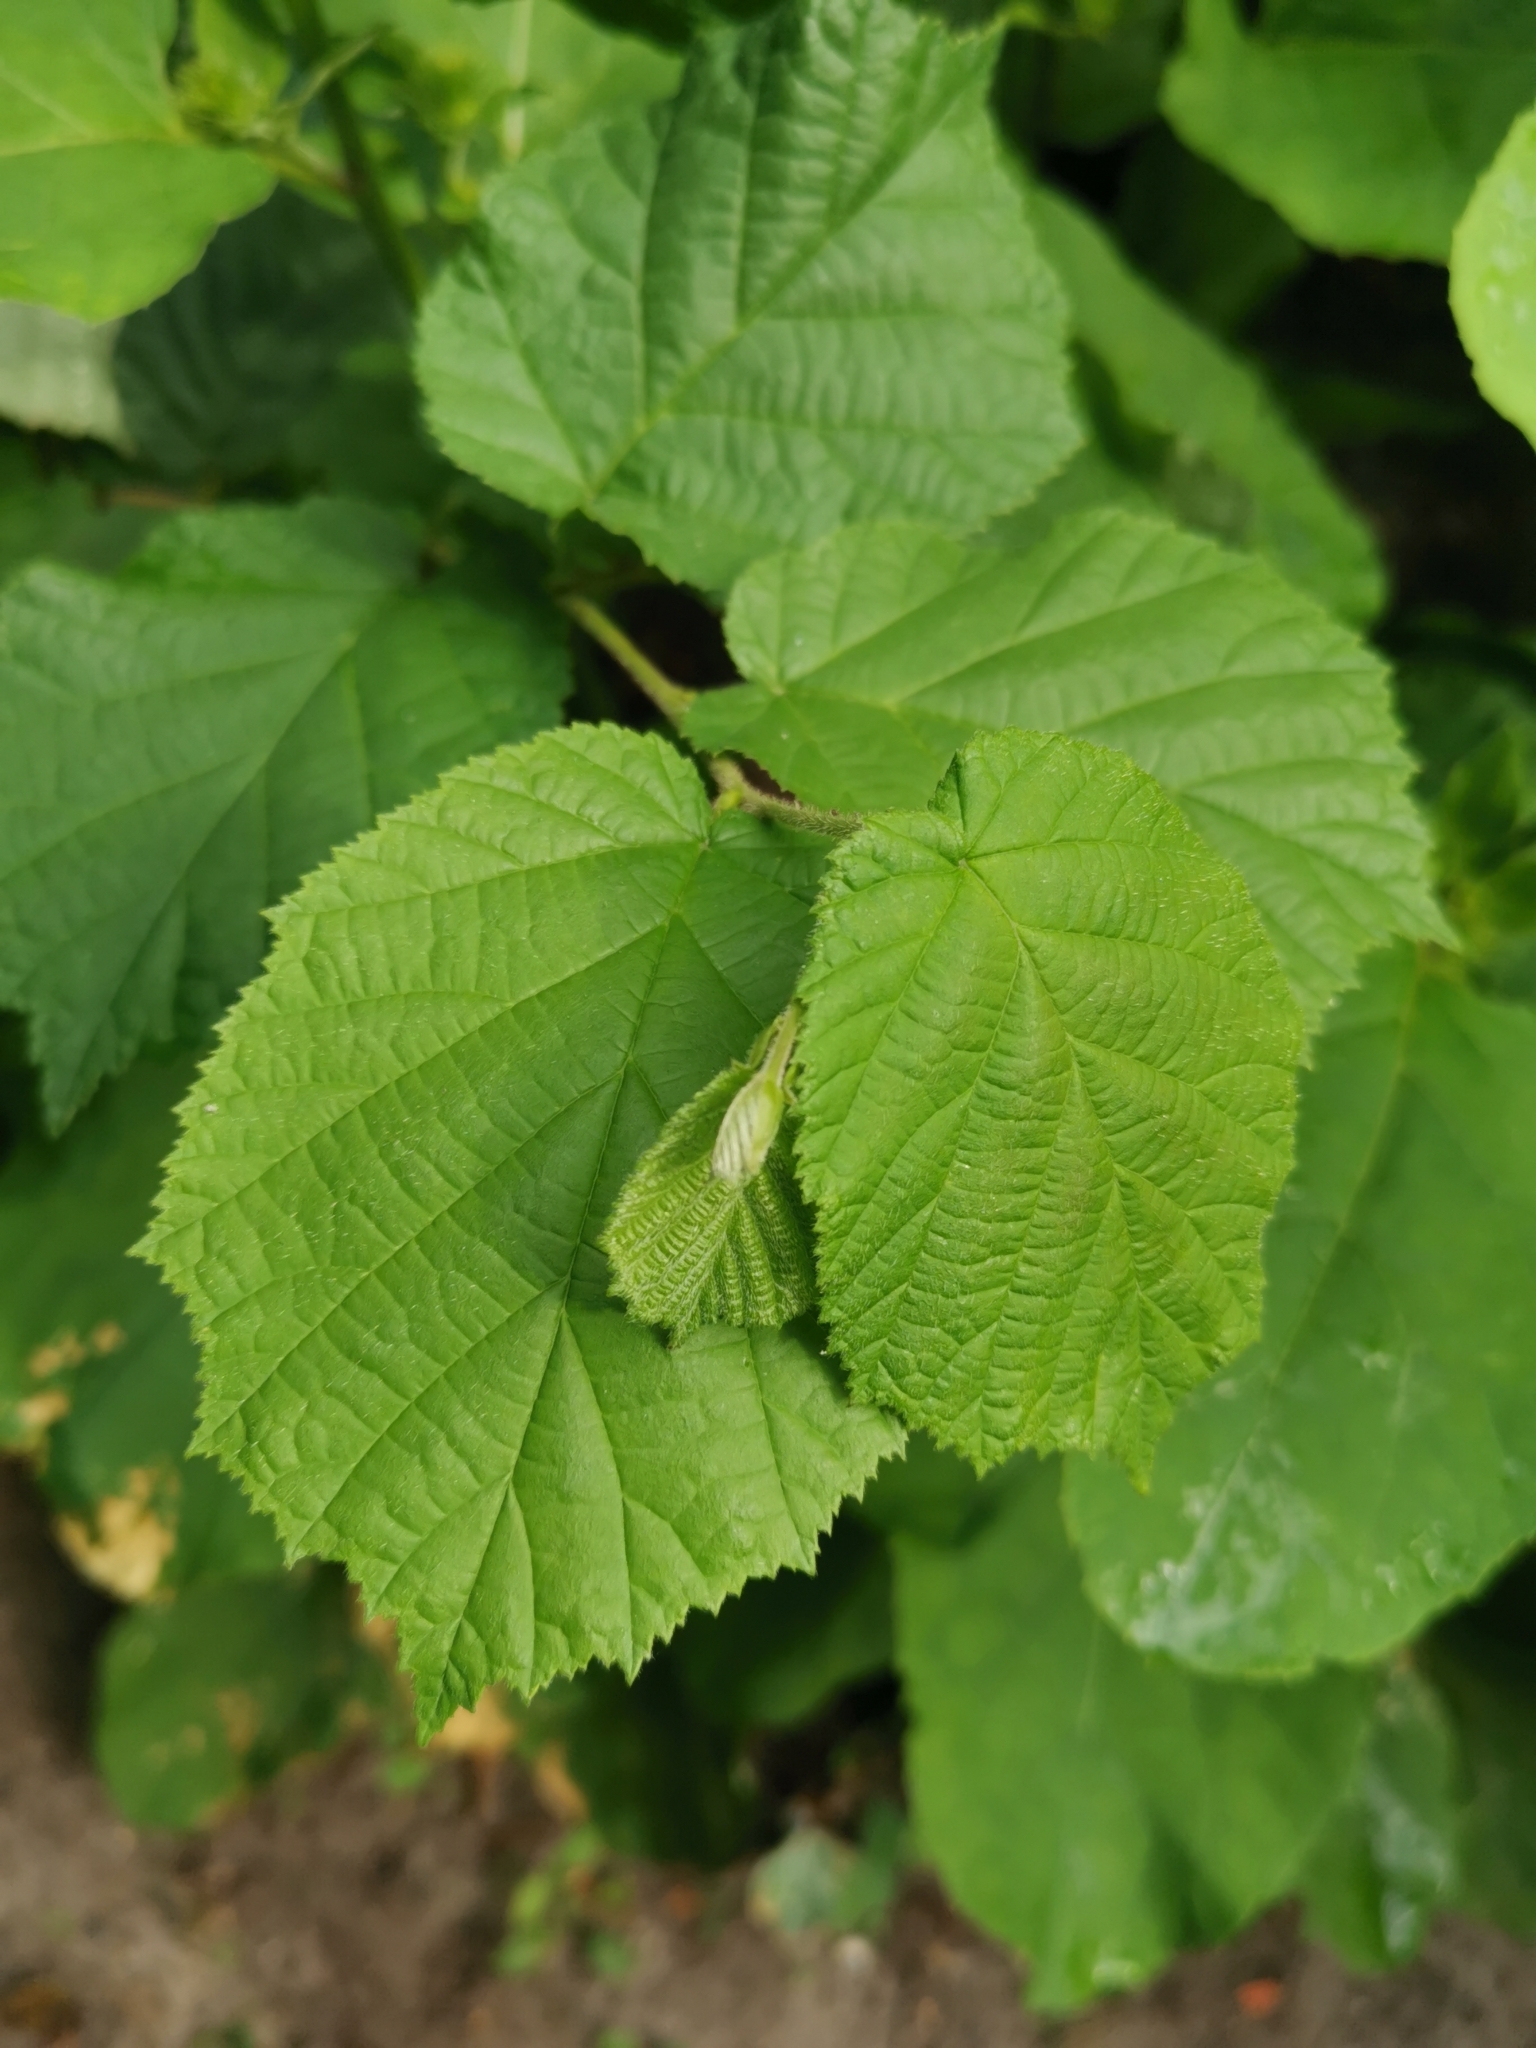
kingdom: Plantae
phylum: Tracheophyta
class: Magnoliopsida
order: Fagales
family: Betulaceae
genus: Corylus
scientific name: Corylus avellana
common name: European hazel
